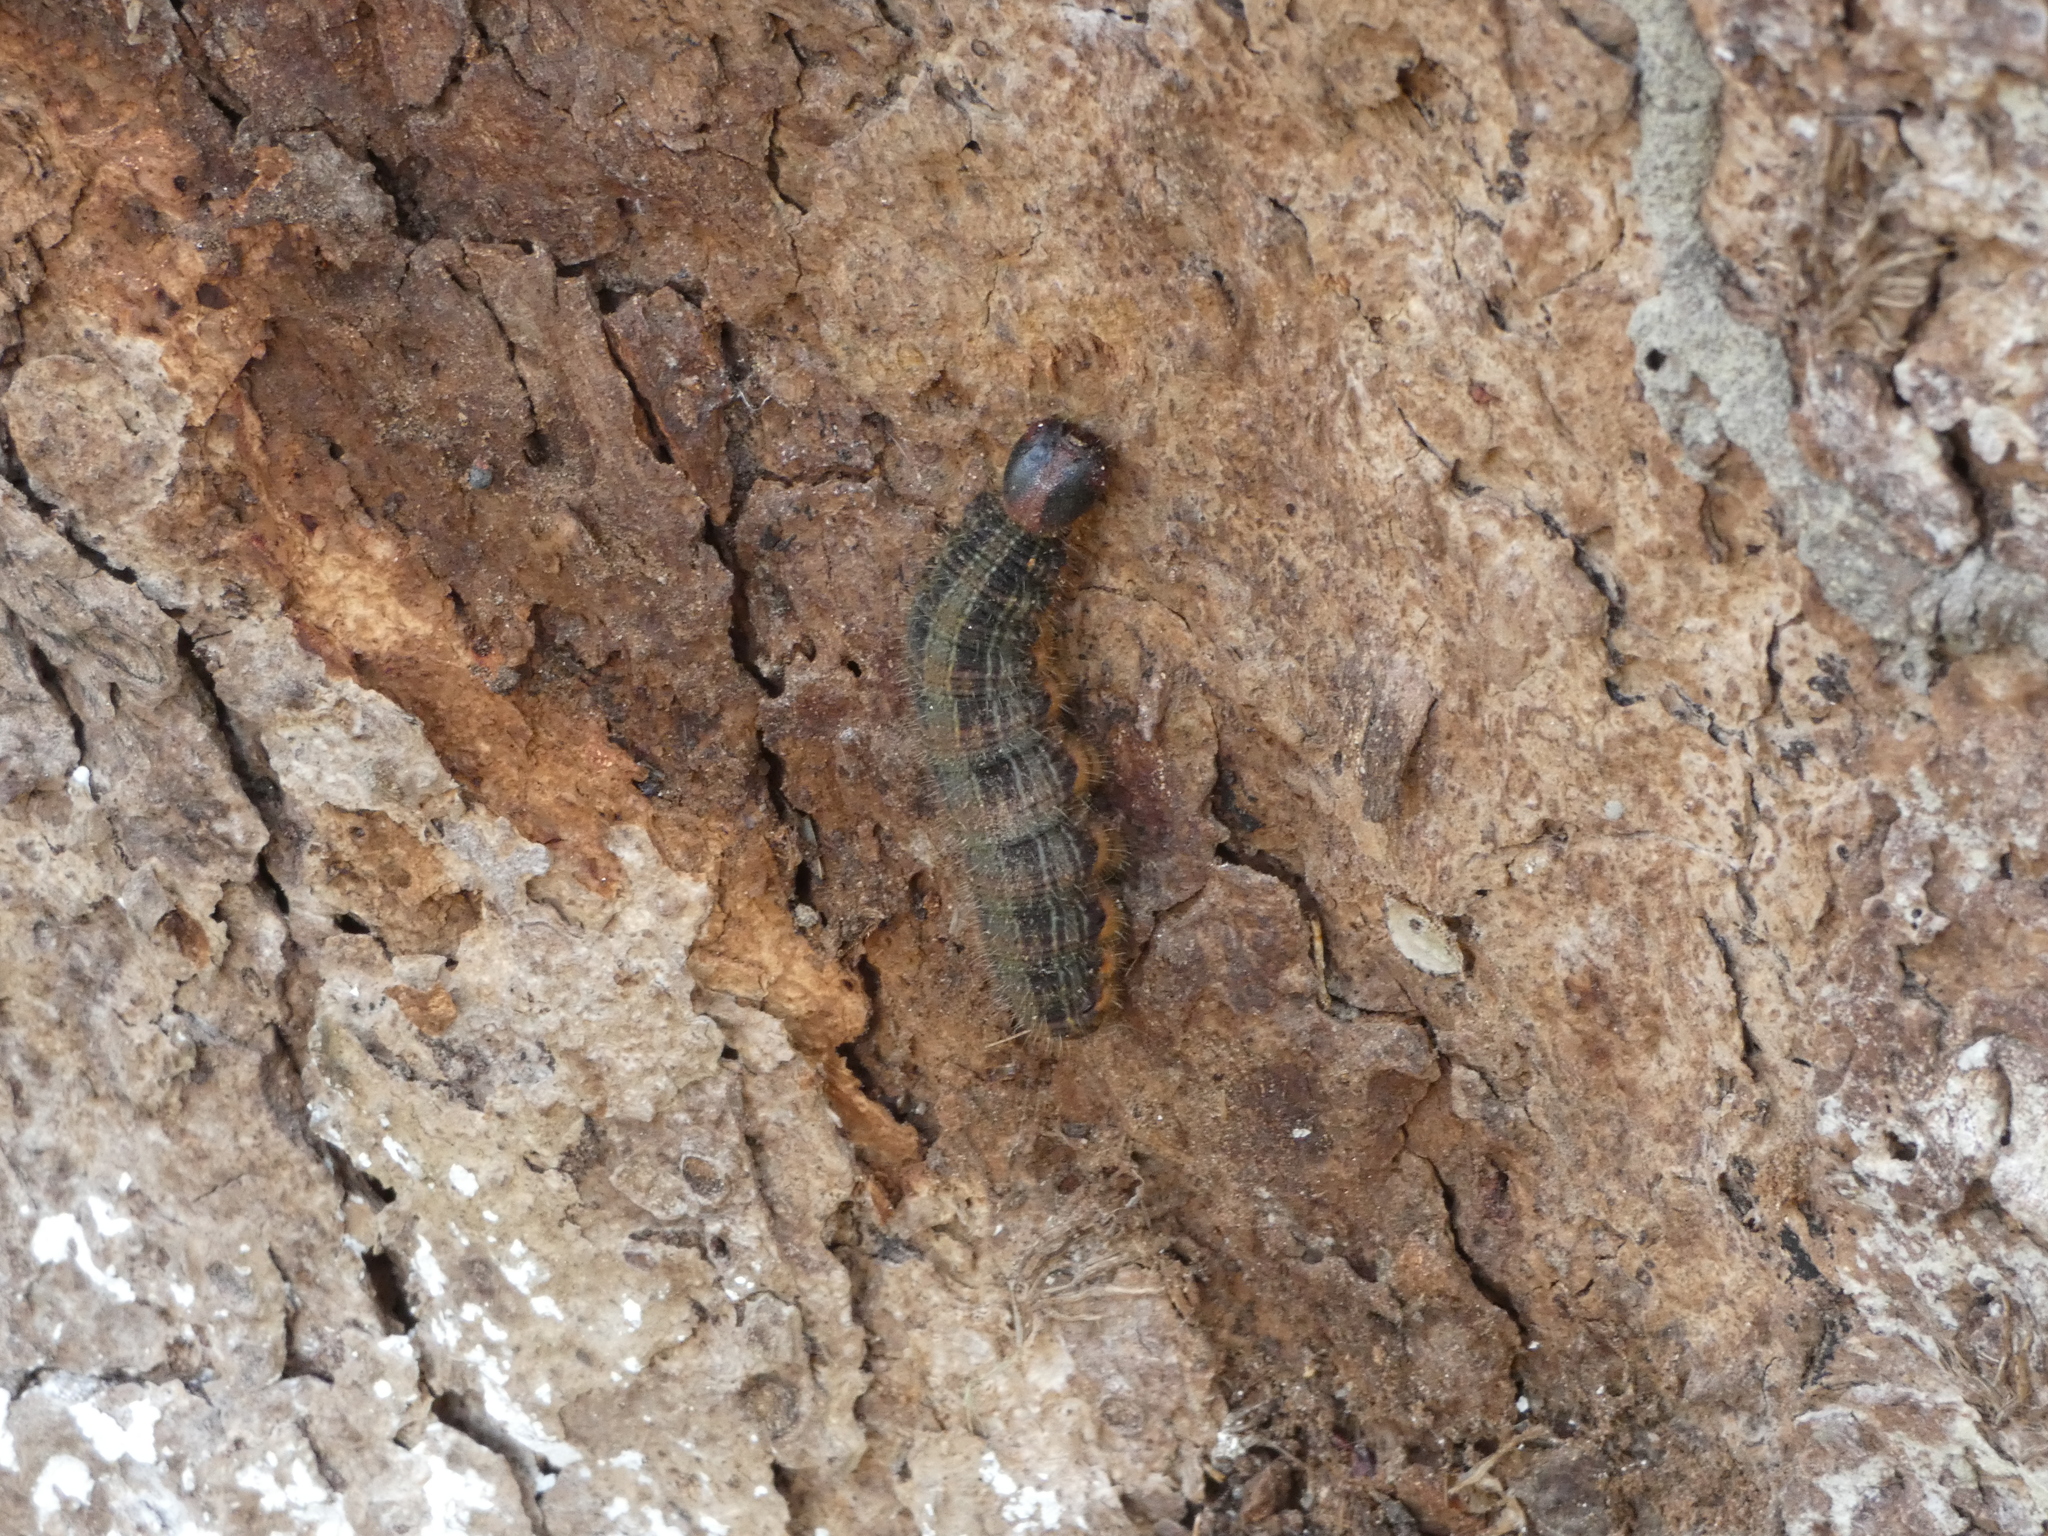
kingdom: Animalia
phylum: Arthropoda
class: Insecta
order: Lepidoptera
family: Nymphalidae
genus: Brassolis
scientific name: Brassolis sophorae
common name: Coconut caterpillar
